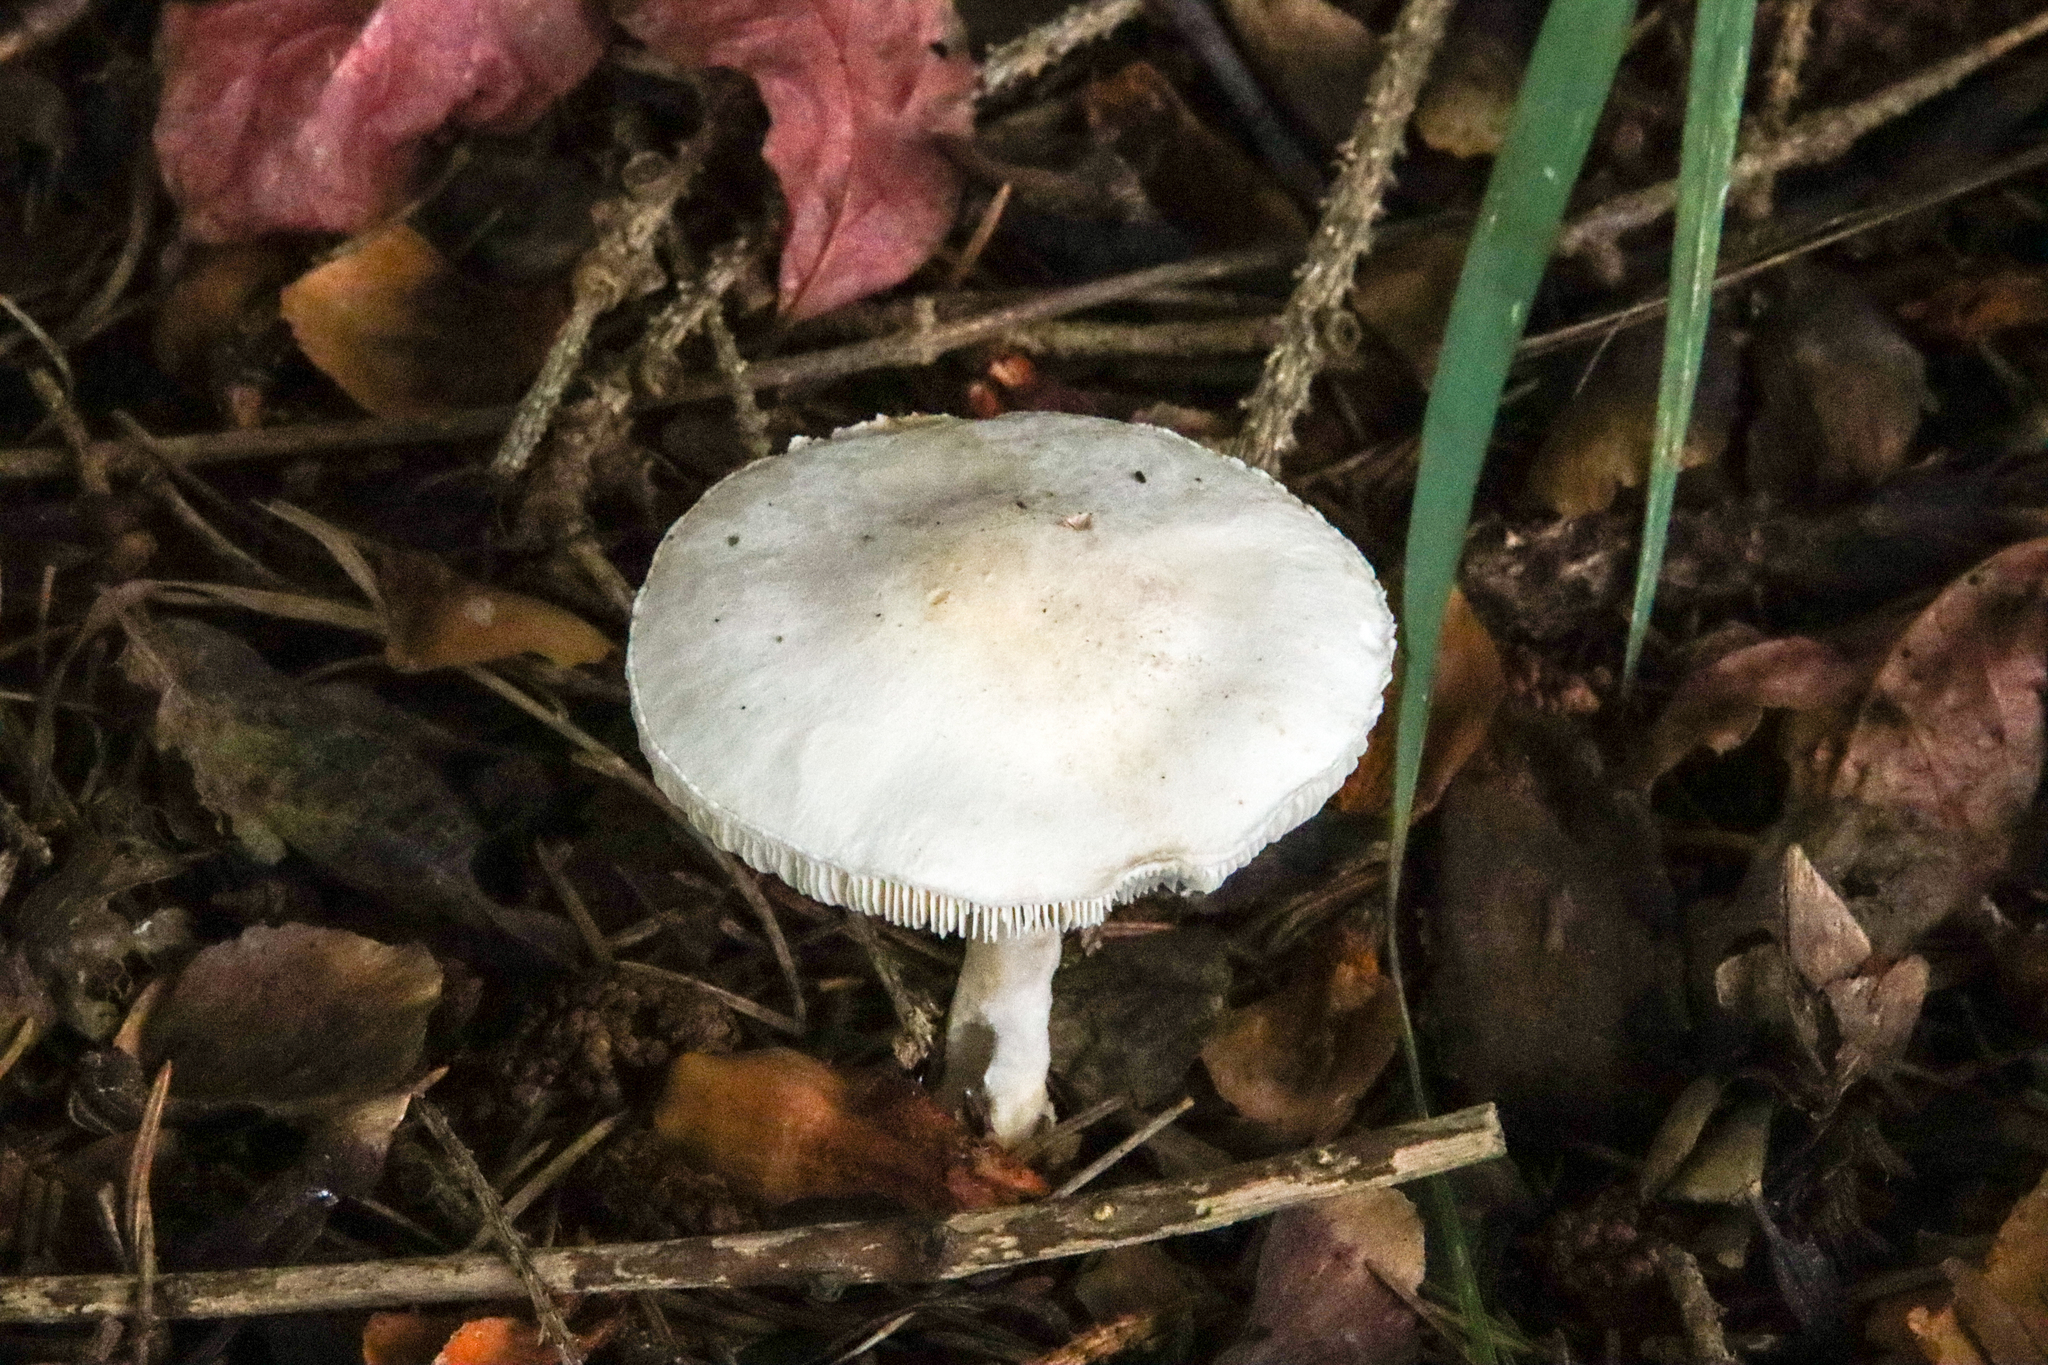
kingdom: Fungi
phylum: Basidiomycota
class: Agaricomycetes
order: Agaricales
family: Agaricaceae
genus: Leucoagaricus
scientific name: Leucoagaricus leucothites
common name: White dapperling
